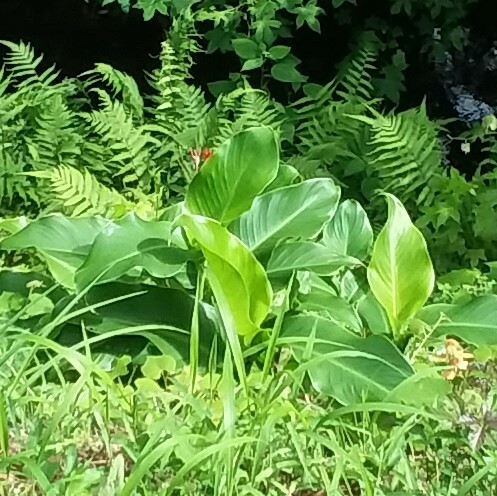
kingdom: Plantae
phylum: Tracheophyta
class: Liliopsida
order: Zingiberales
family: Cannaceae
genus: Canna
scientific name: Canna indica
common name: Indian shot
